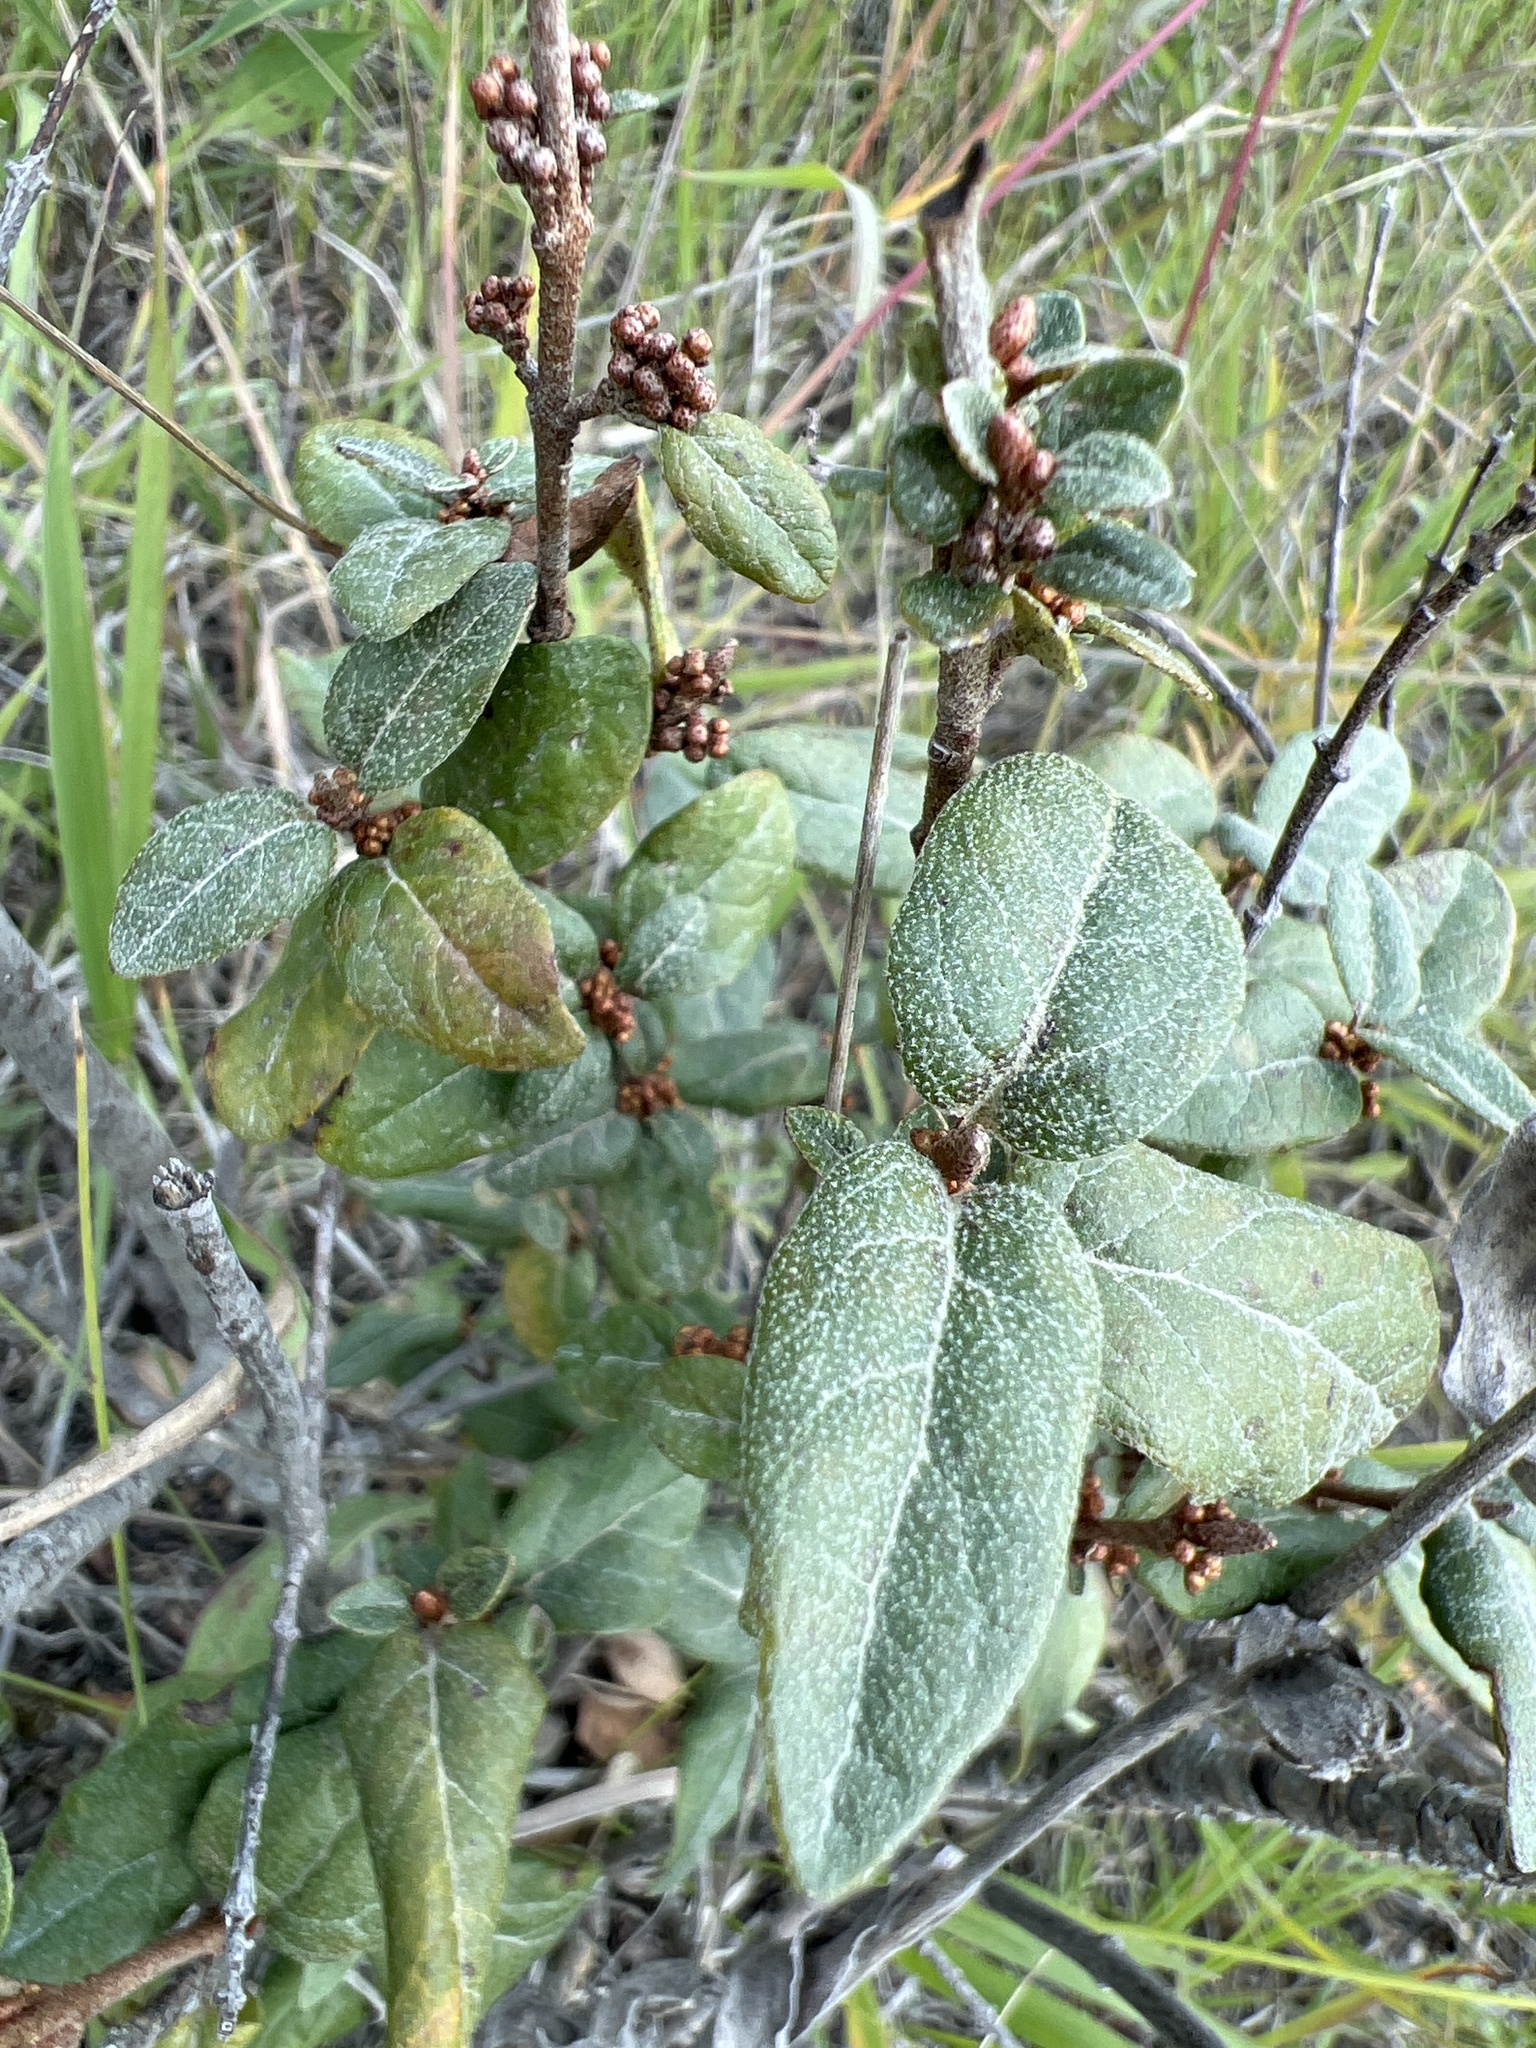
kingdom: Plantae
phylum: Tracheophyta
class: Magnoliopsida
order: Rosales
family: Elaeagnaceae
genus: Shepherdia
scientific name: Shepherdia canadensis
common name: Soapberry
